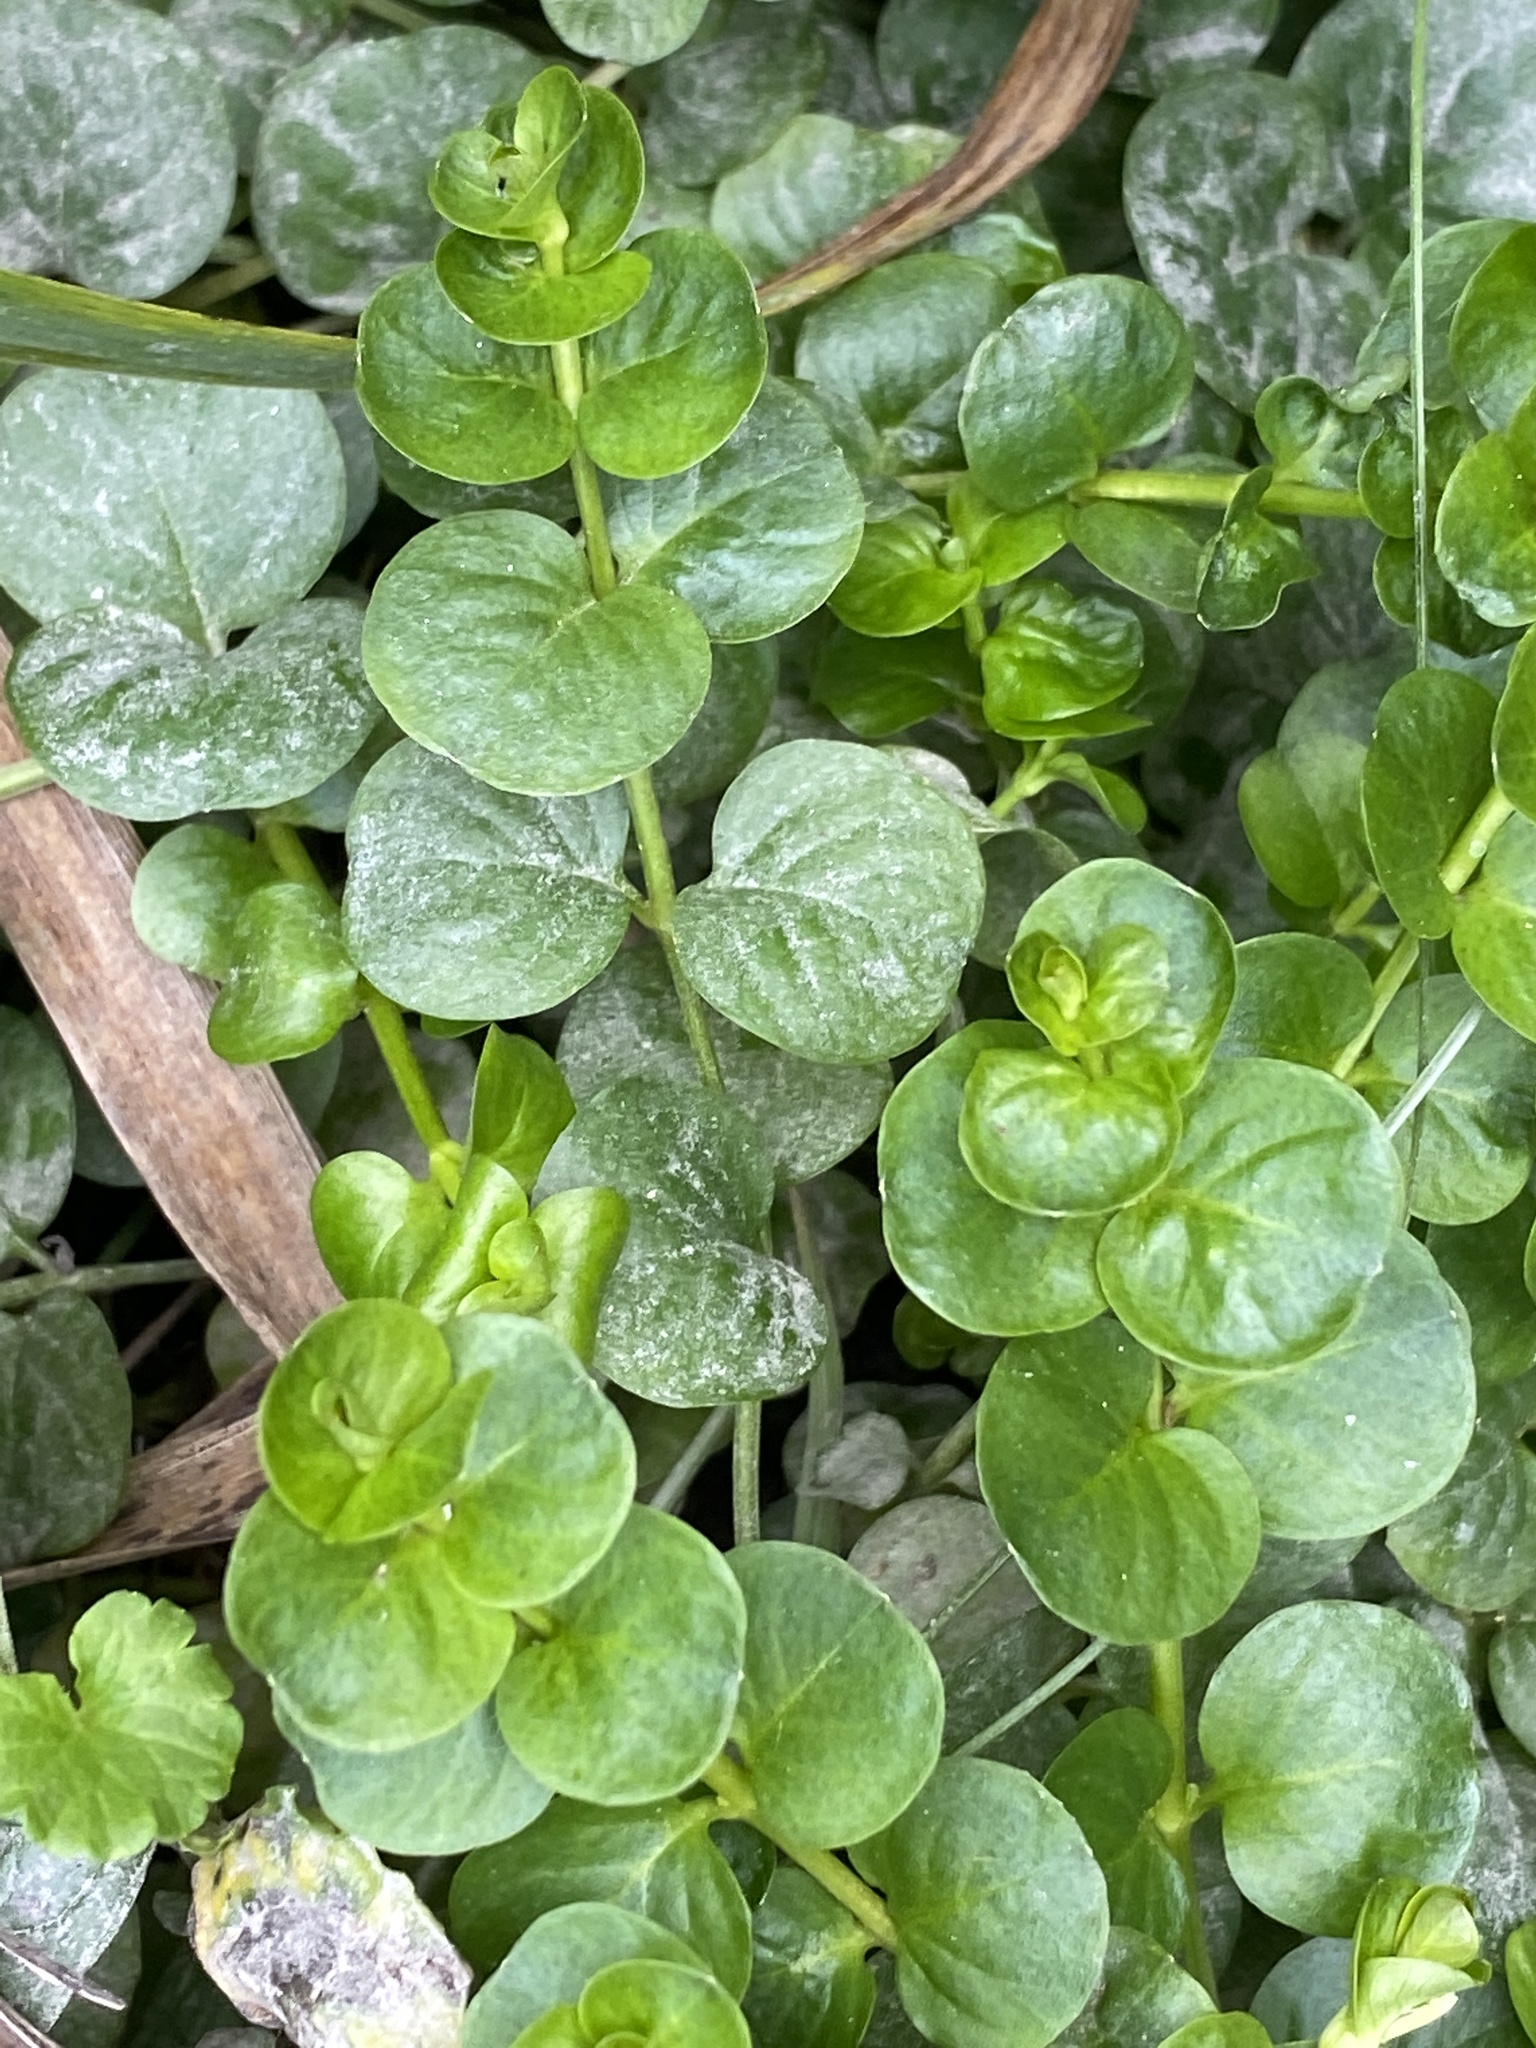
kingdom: Plantae
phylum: Tracheophyta
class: Magnoliopsida
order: Ericales
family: Primulaceae
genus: Lysimachia
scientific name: Lysimachia nummularia
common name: Moneywort
